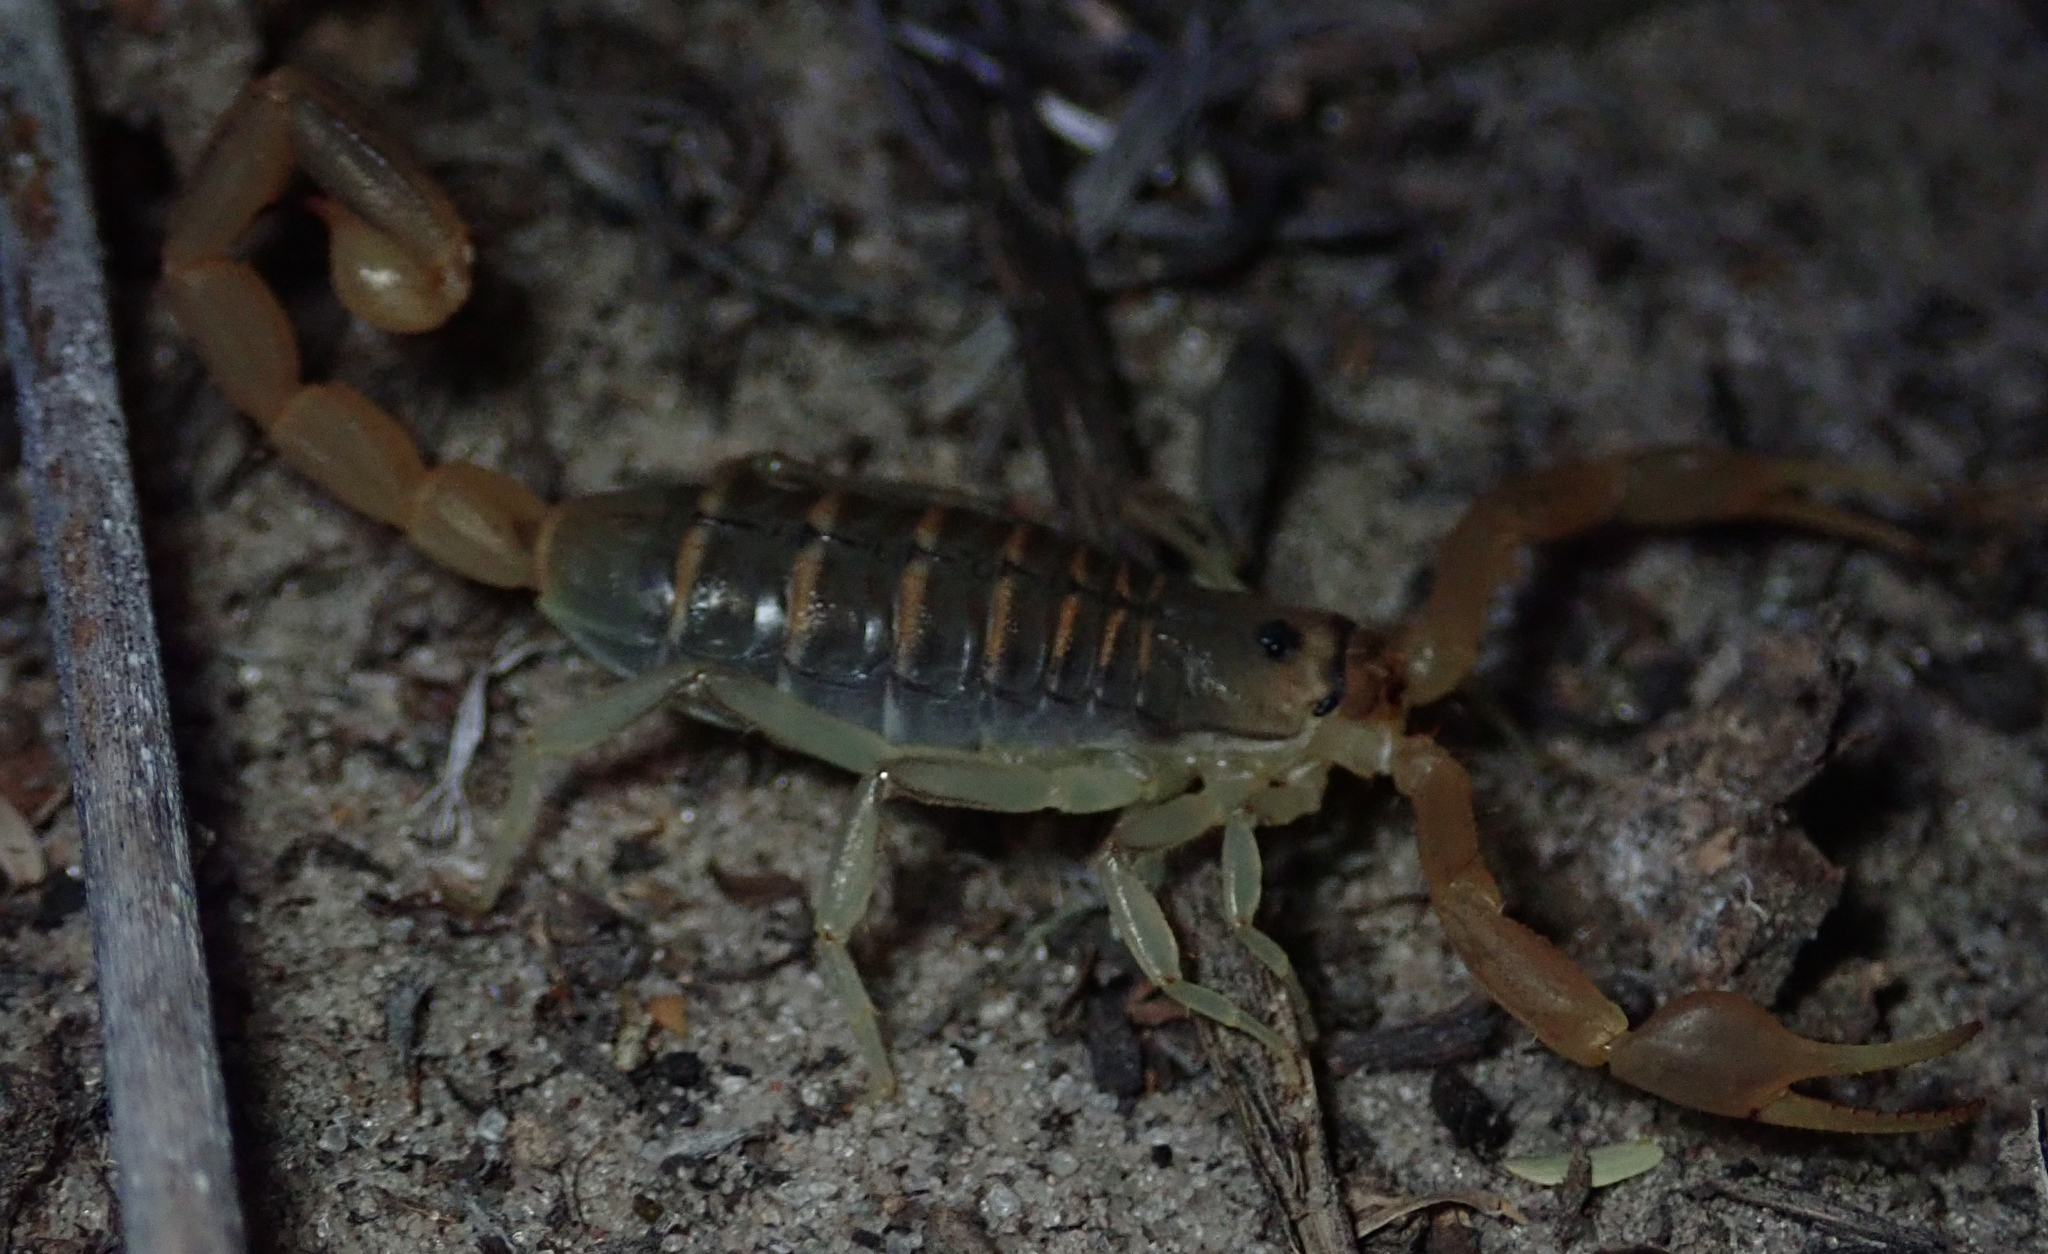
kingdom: Animalia
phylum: Arthropoda
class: Arachnida
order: Scorpiones
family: Buthidae
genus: Uroplectes
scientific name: Uroplectes planimanus
